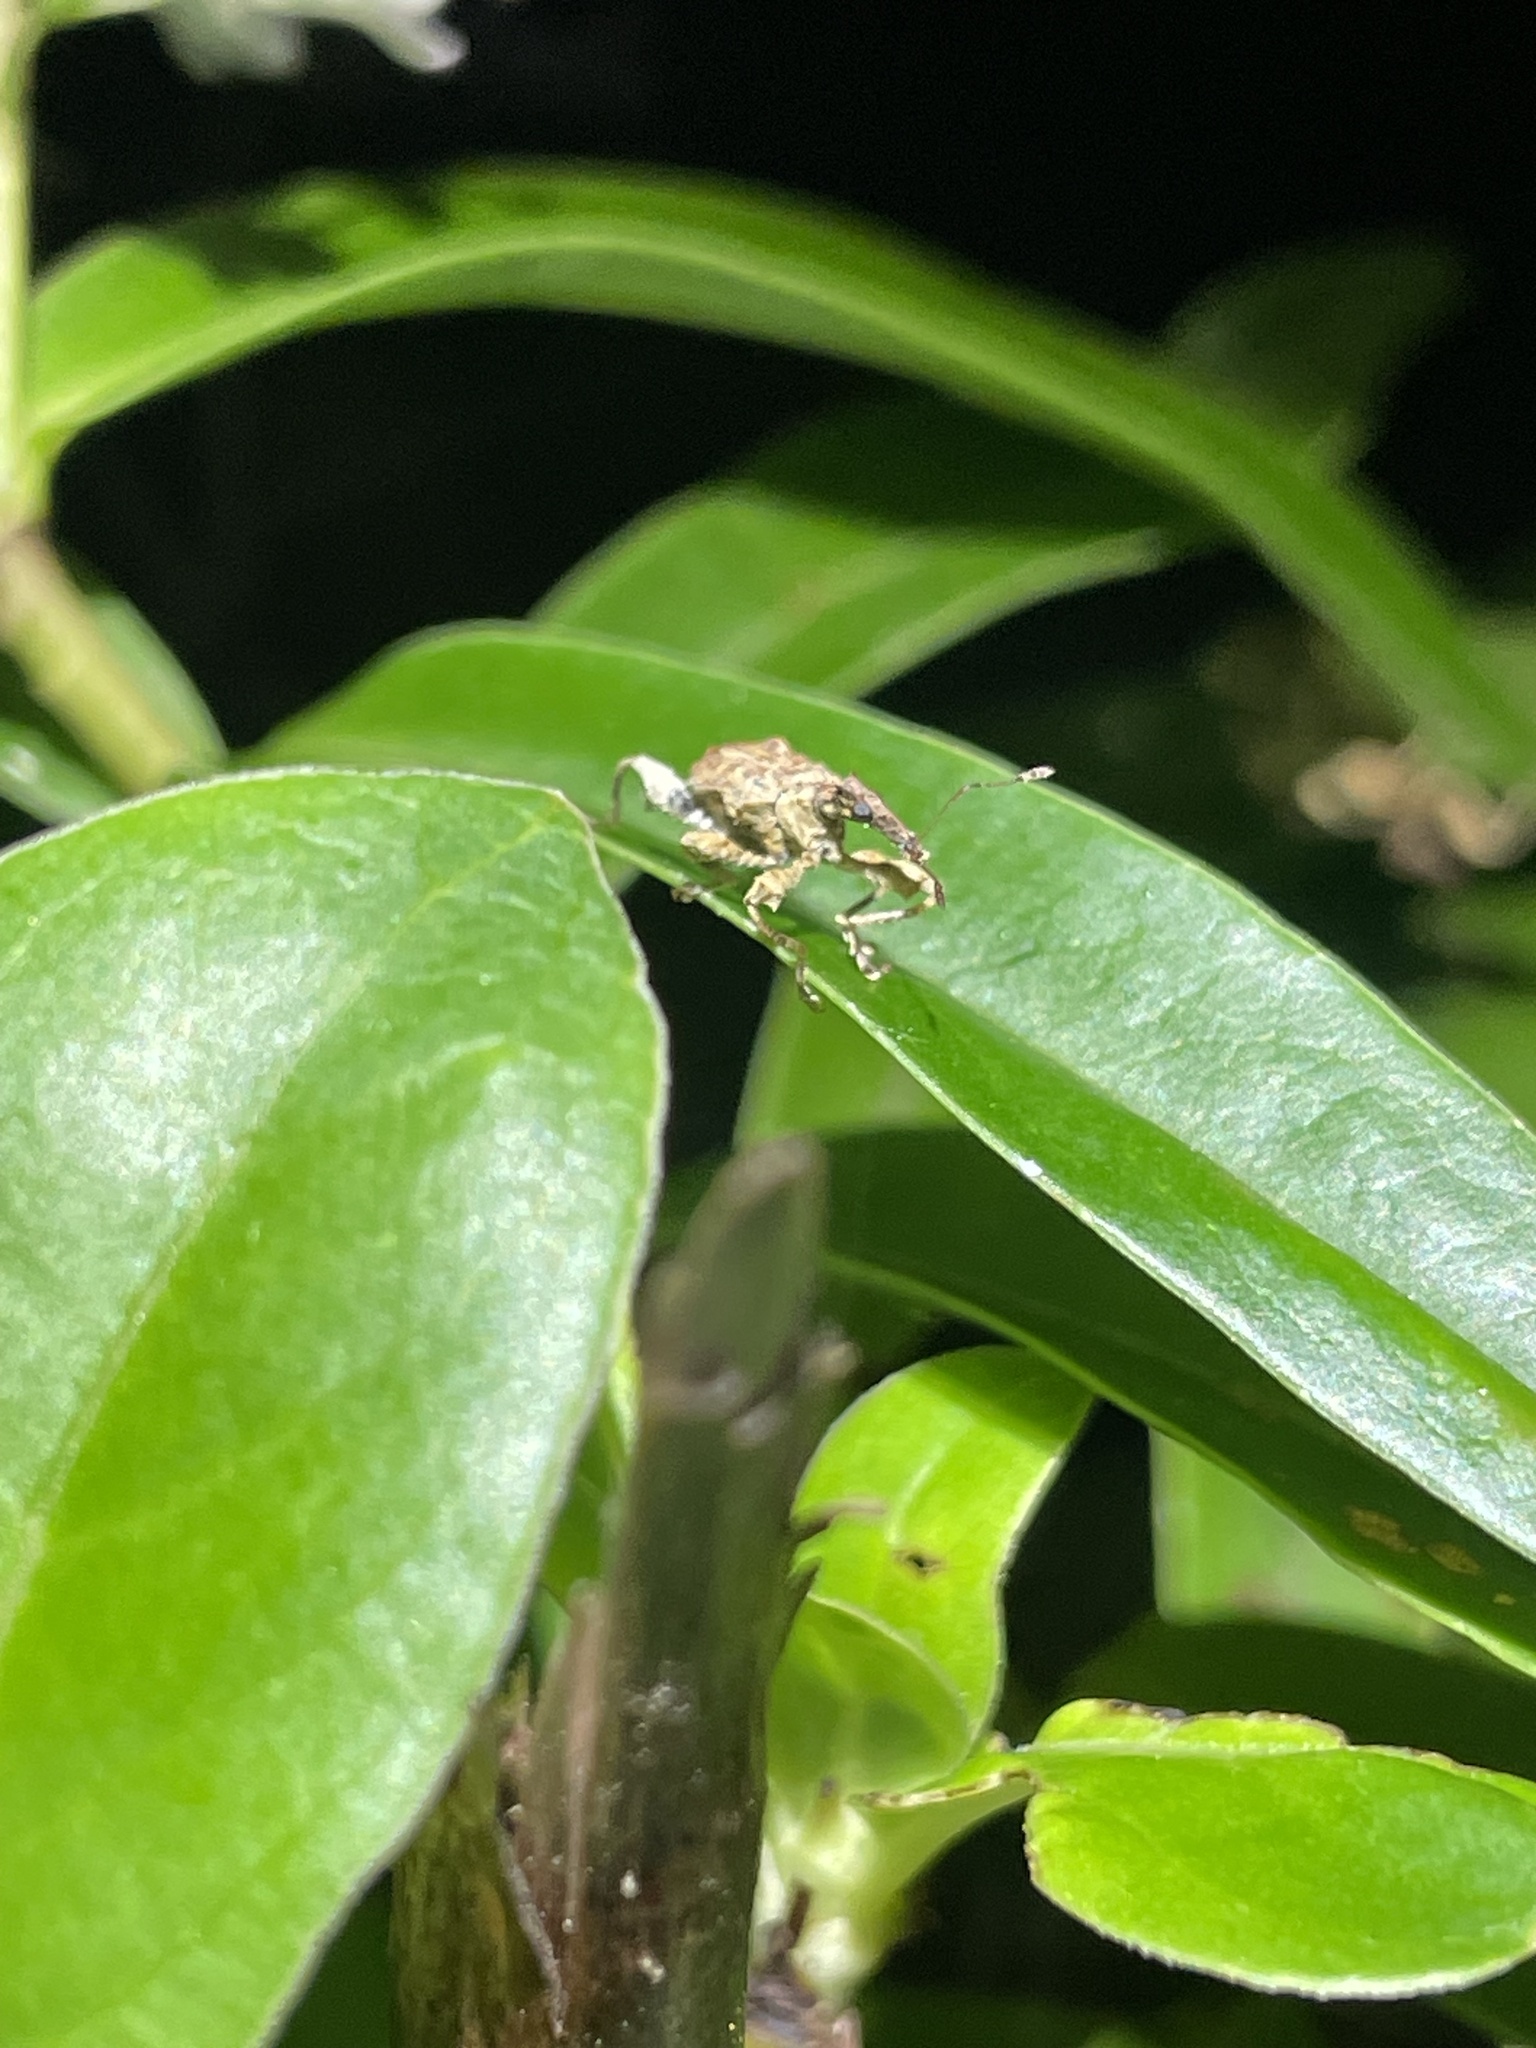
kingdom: Animalia
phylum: Arthropoda
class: Insecta
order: Coleoptera
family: Curculionidae
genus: Stephanorhynchus
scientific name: Stephanorhynchus curvipes
